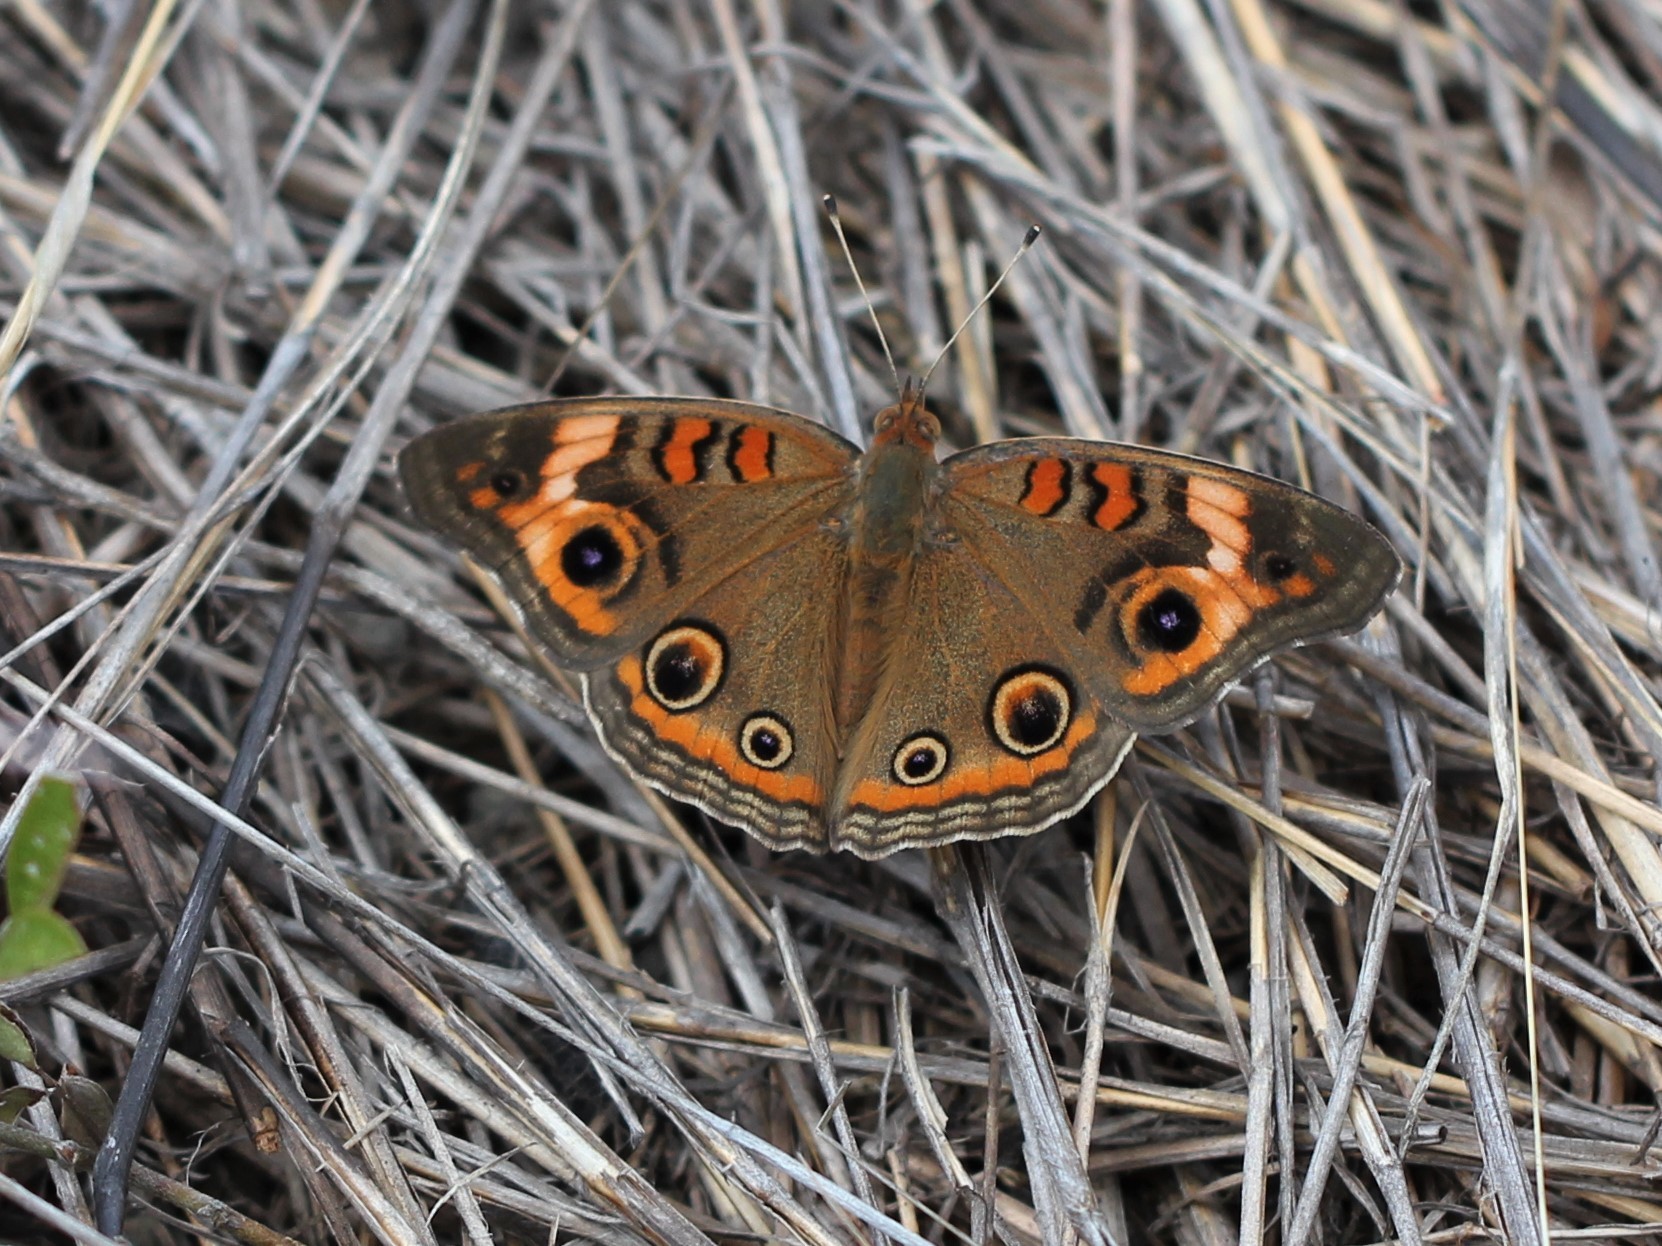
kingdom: Animalia
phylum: Arthropoda
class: Insecta
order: Lepidoptera
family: Nymphalidae
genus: Junonia
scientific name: Junonia neildi
